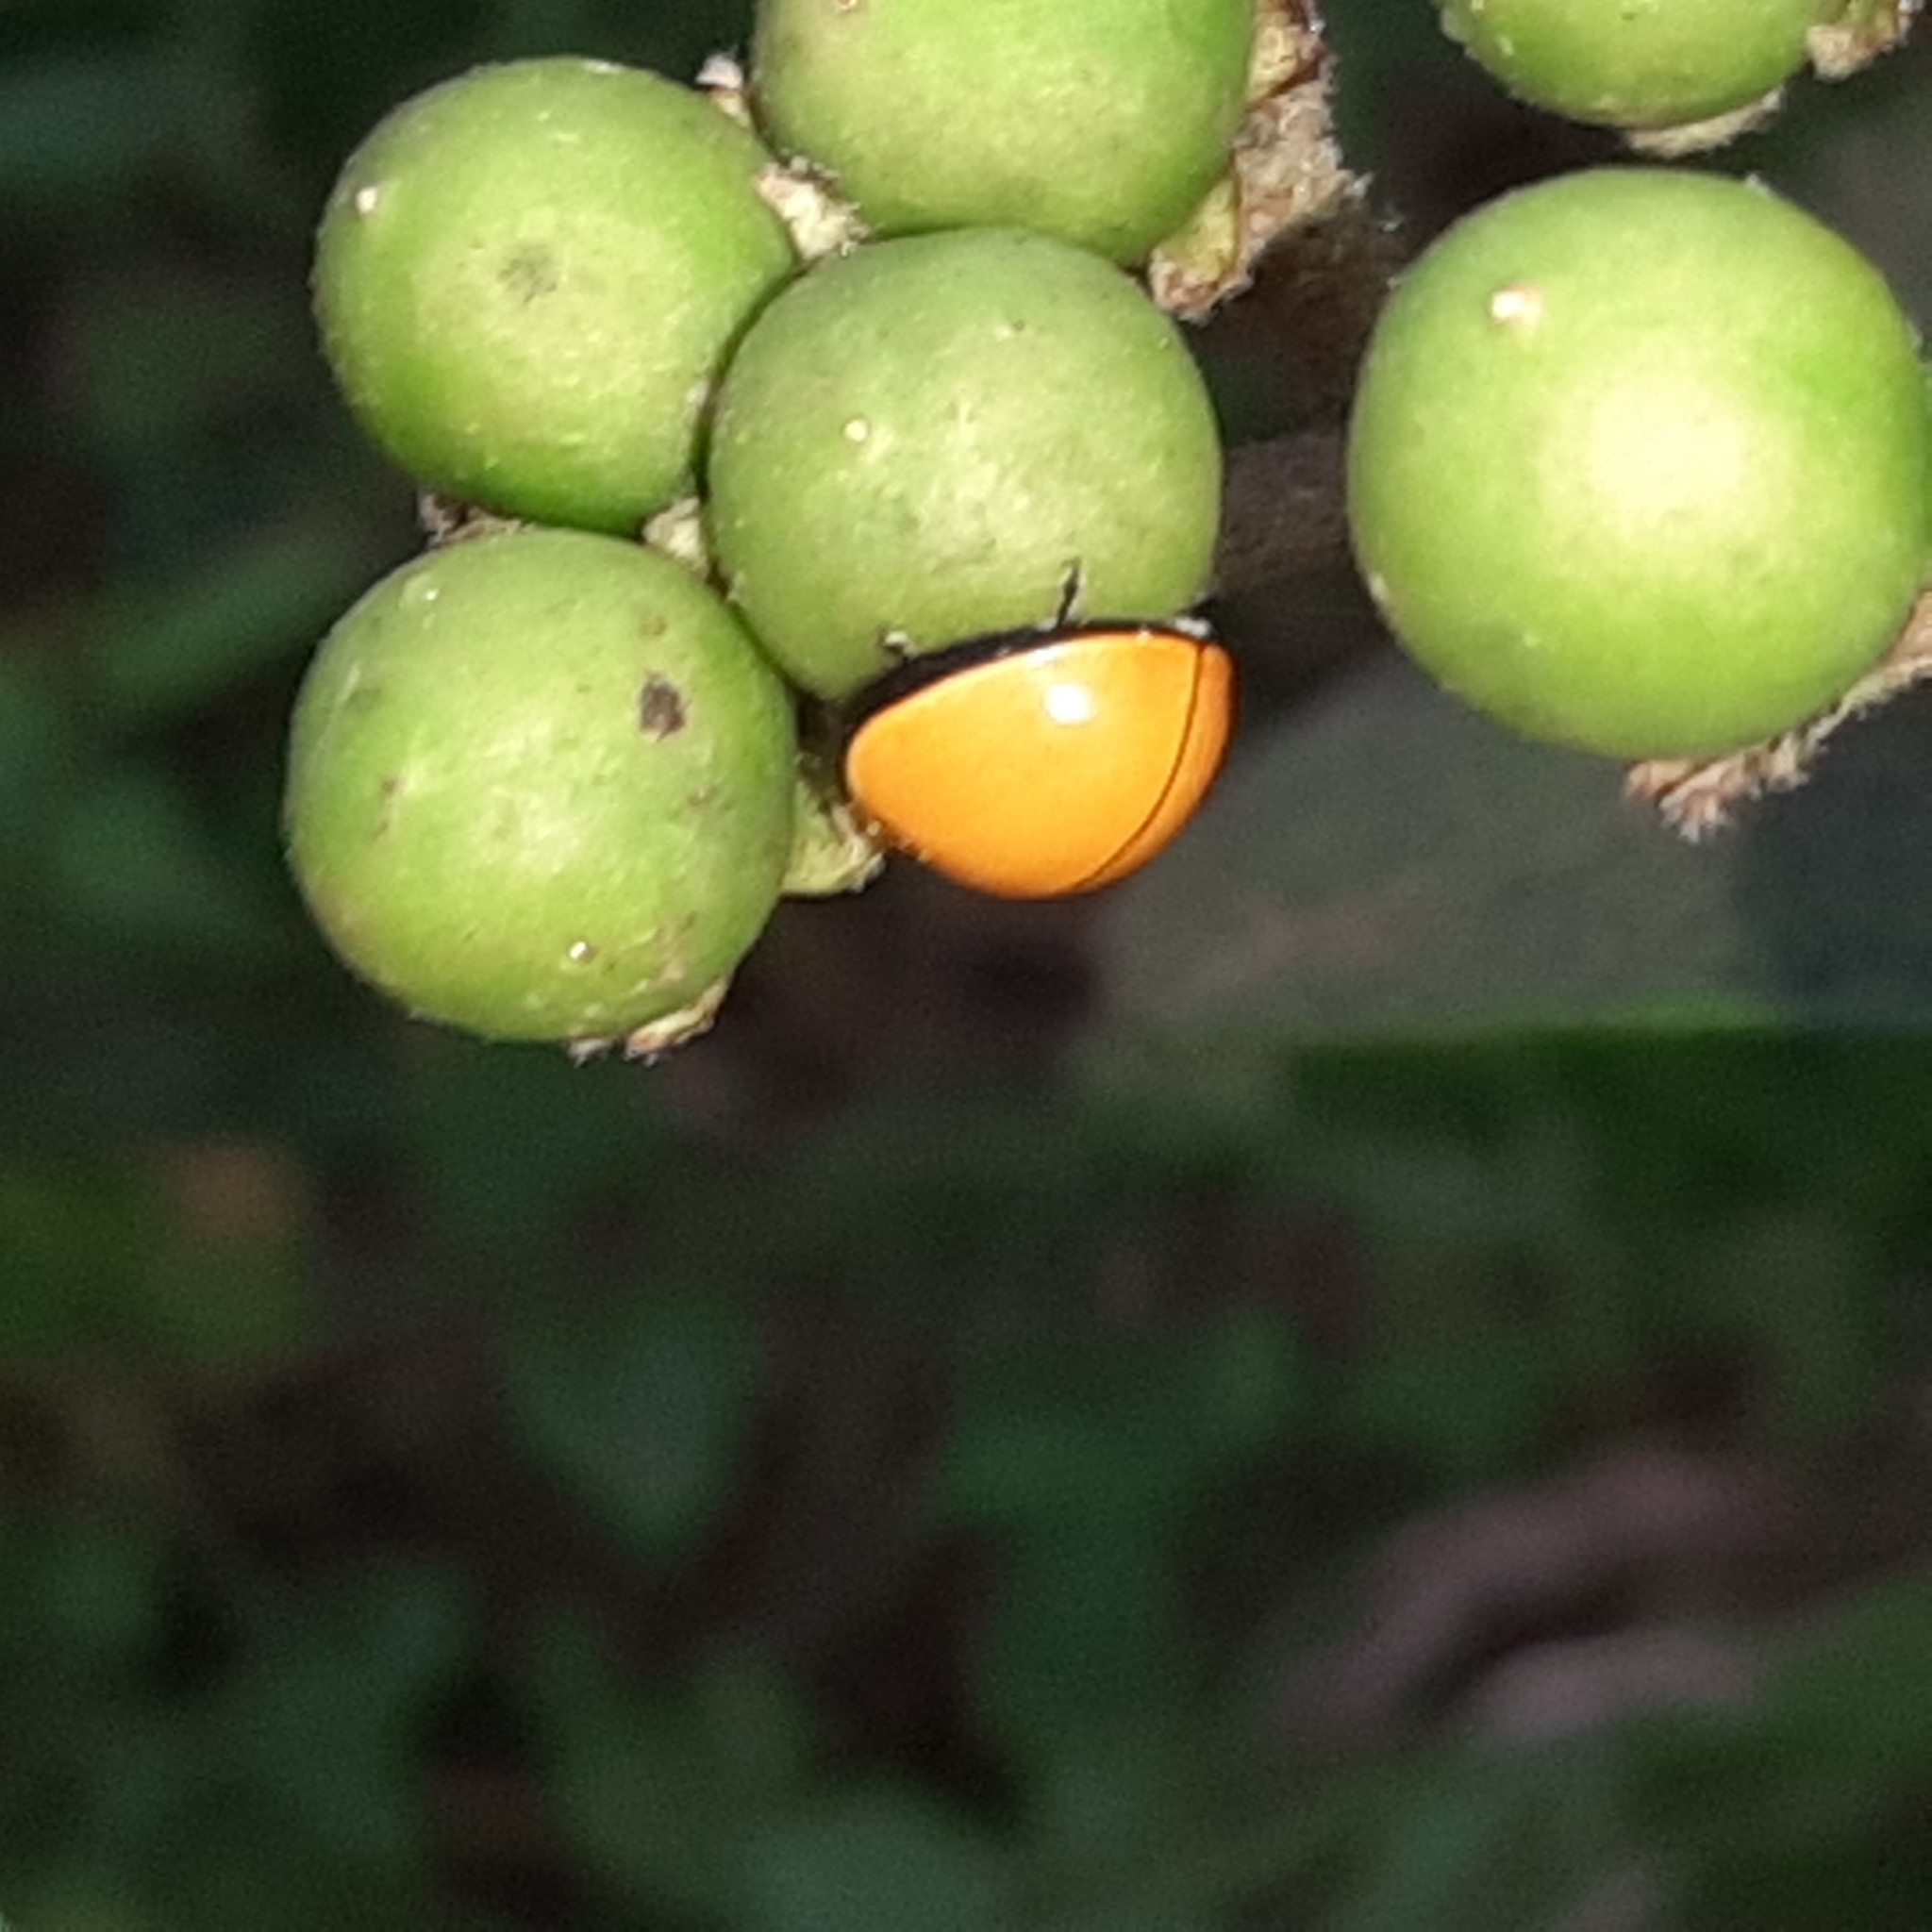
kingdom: Animalia
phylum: Arthropoda
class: Insecta
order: Coleoptera
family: Coccinellidae
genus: Neda
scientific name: Neda
